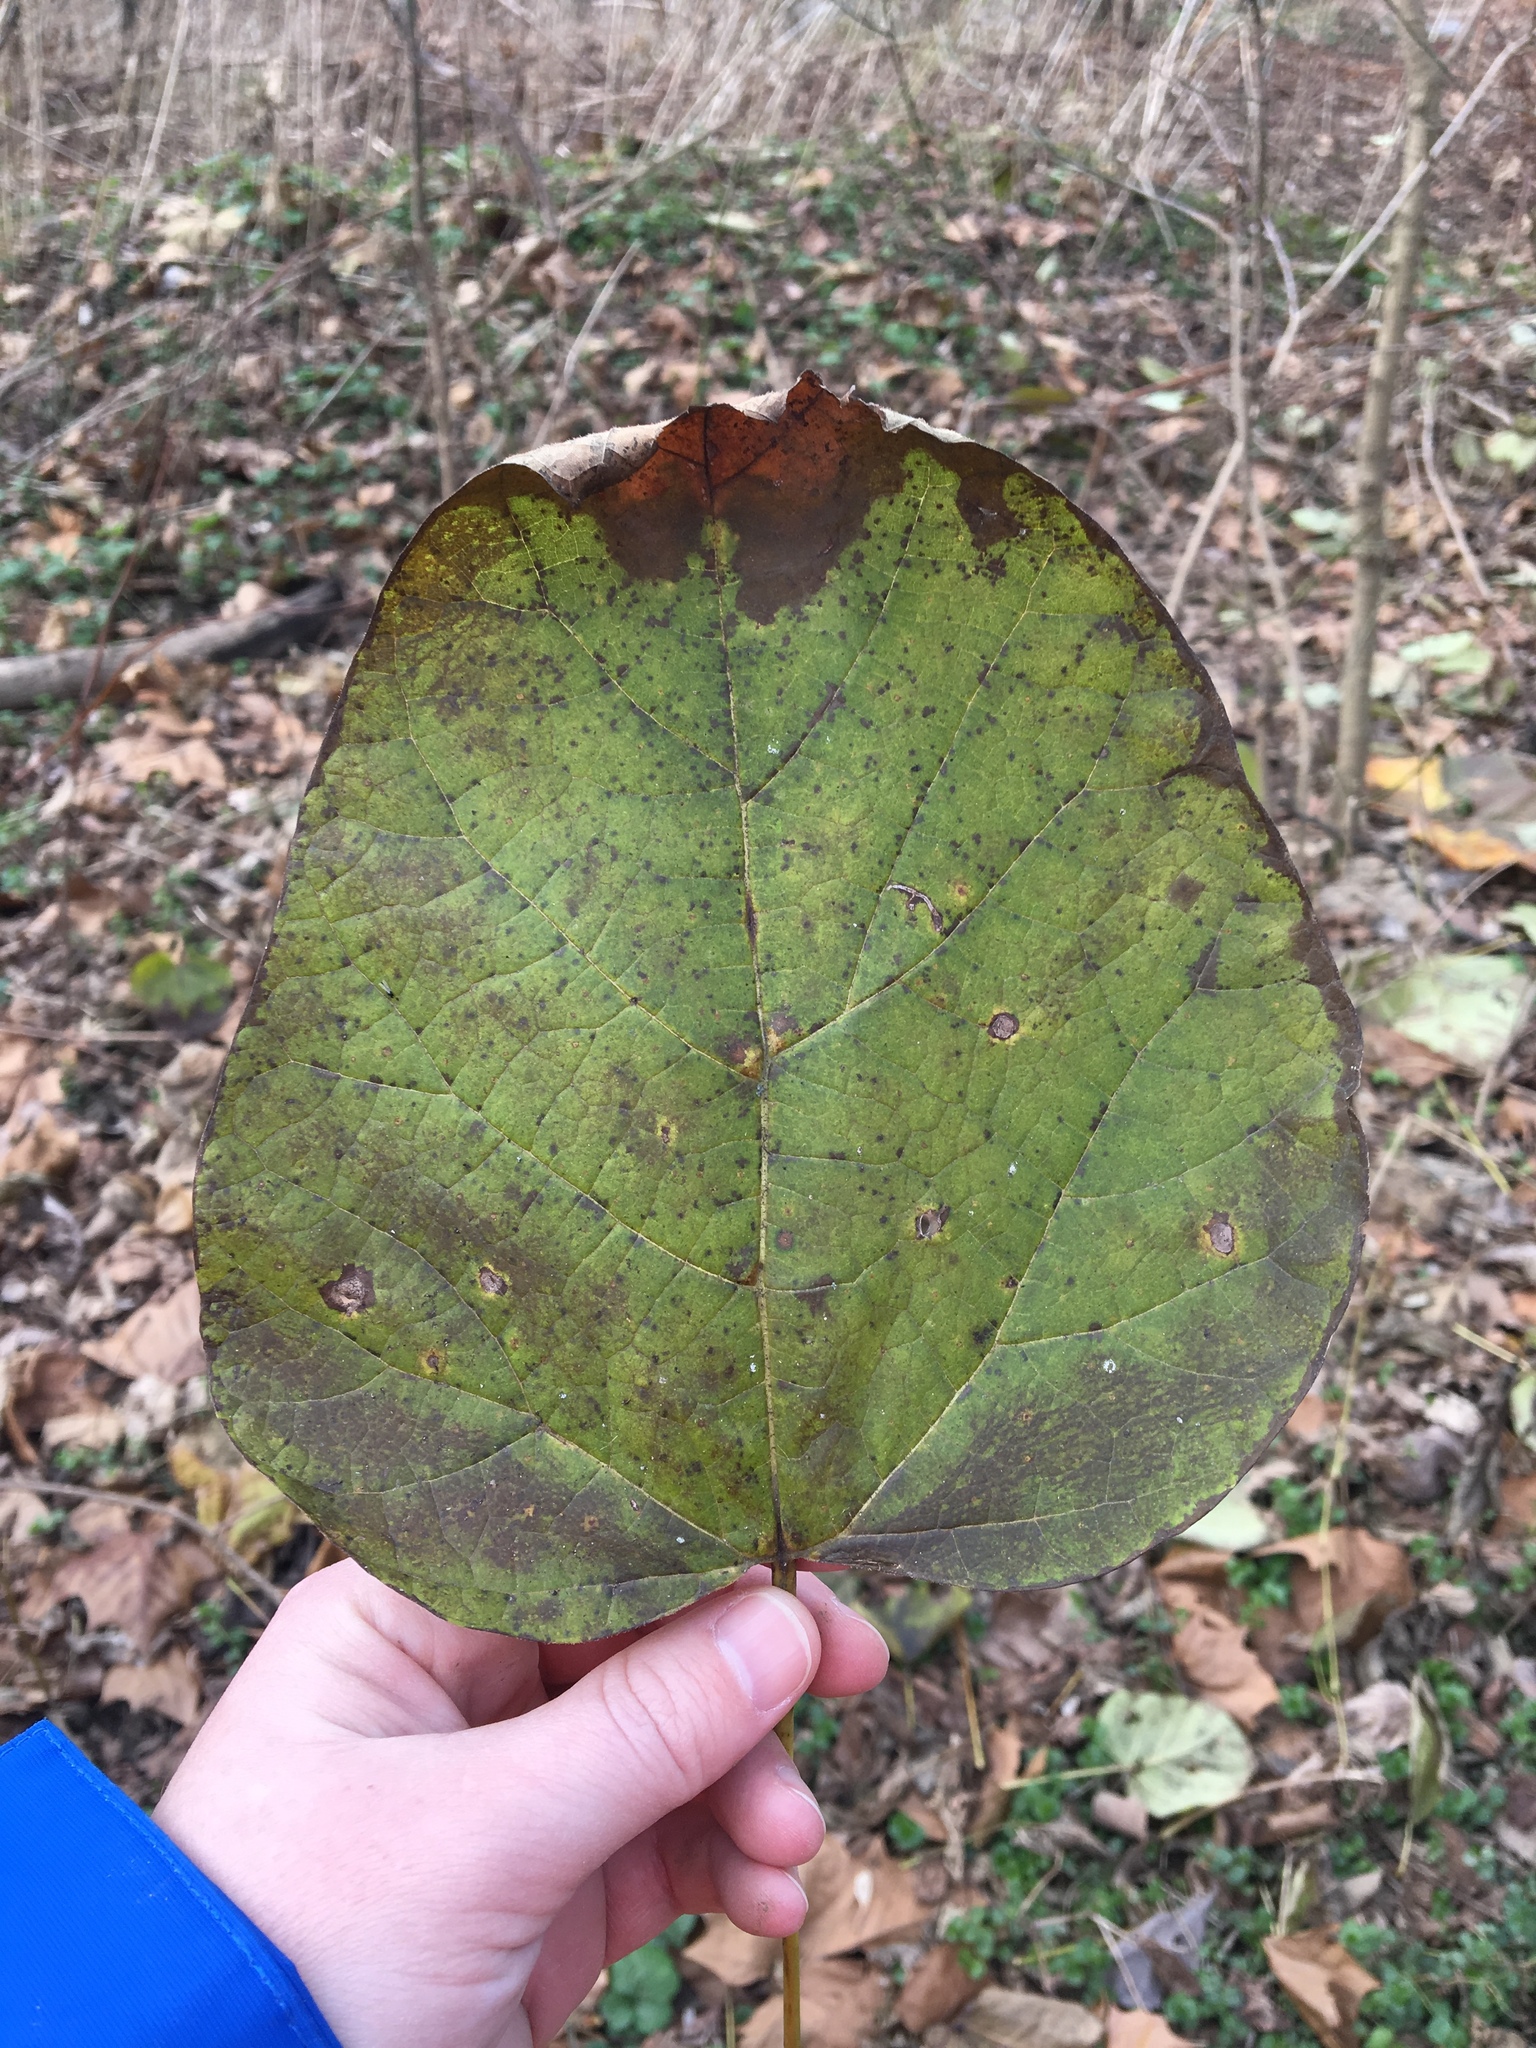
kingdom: Plantae
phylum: Tracheophyta
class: Magnoliopsida
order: Fabales
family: Fabaceae
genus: Cercis
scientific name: Cercis canadensis
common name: Eastern redbud
